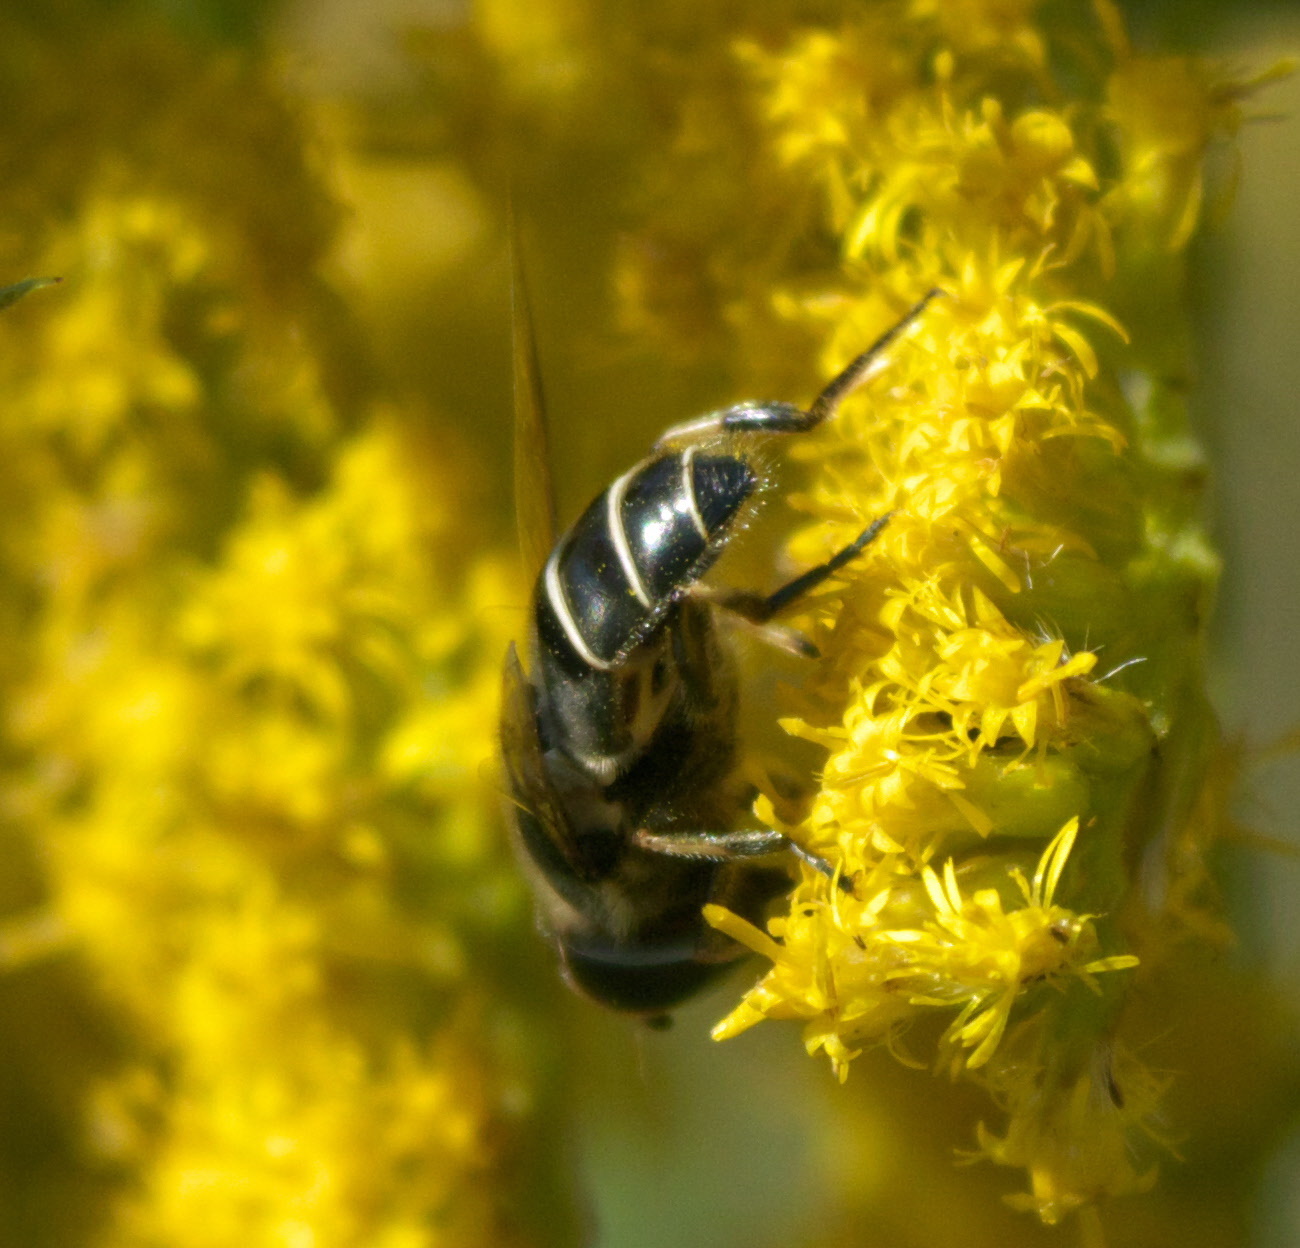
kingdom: Animalia
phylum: Arthropoda
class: Insecta
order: Diptera
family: Syrphidae
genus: Eristalis
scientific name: Eristalis dimidiata
